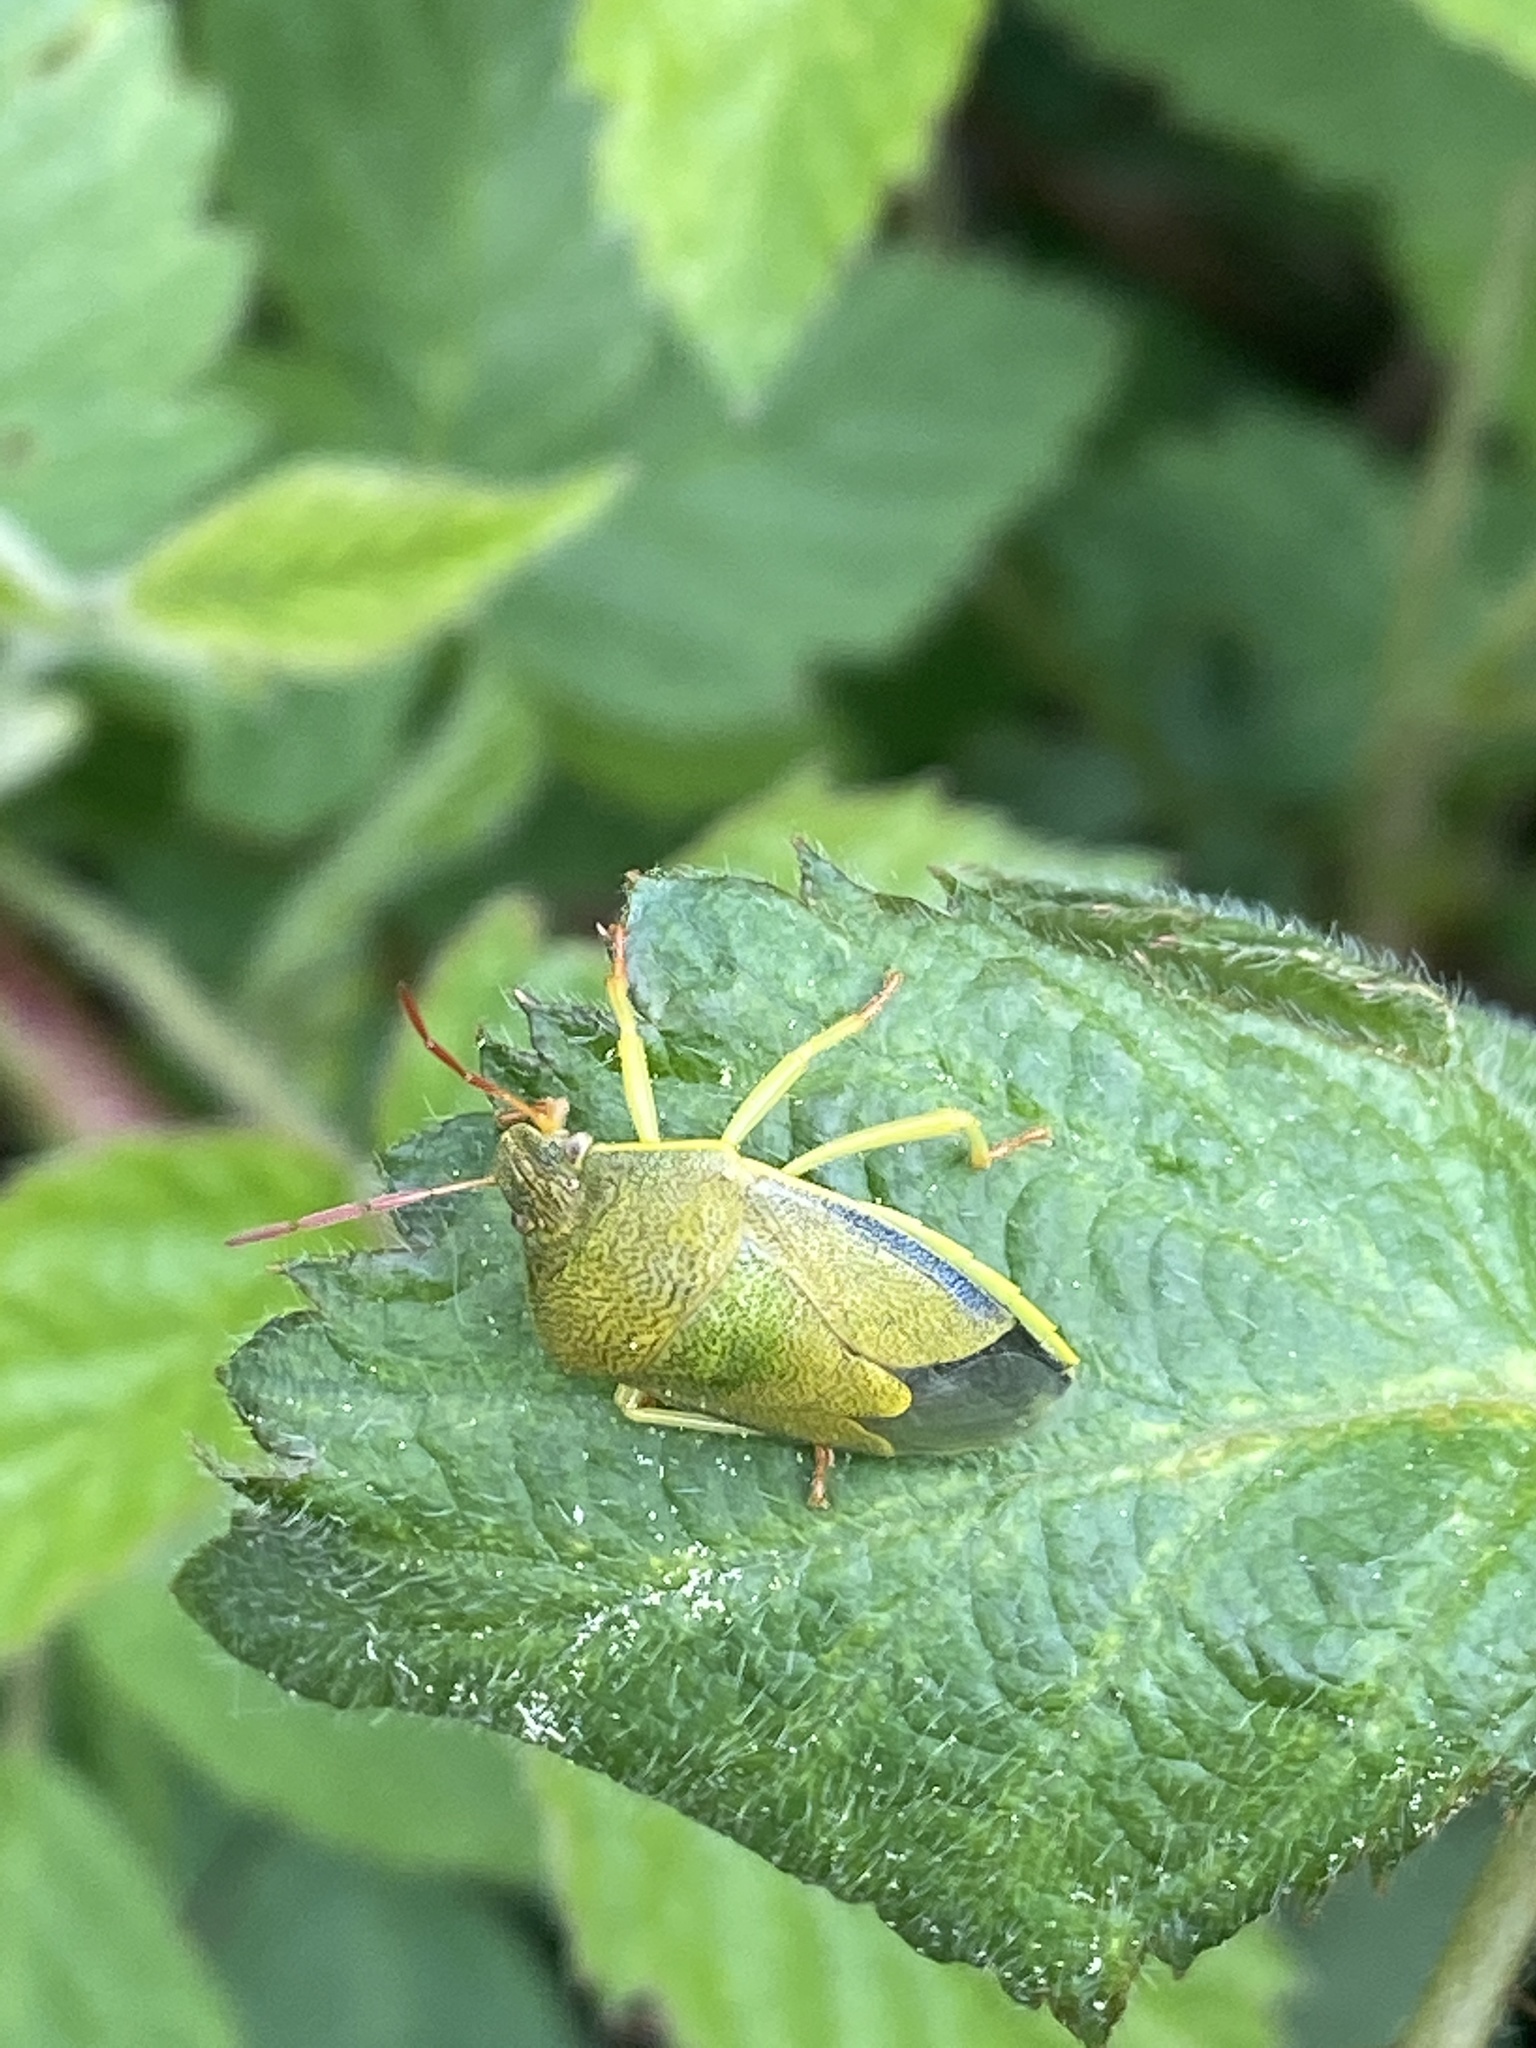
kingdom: Animalia
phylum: Arthropoda
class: Insecta
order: Hemiptera
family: Pentatomidae
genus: Piezodorus
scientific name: Piezodorus lituratus
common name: Stink bug
